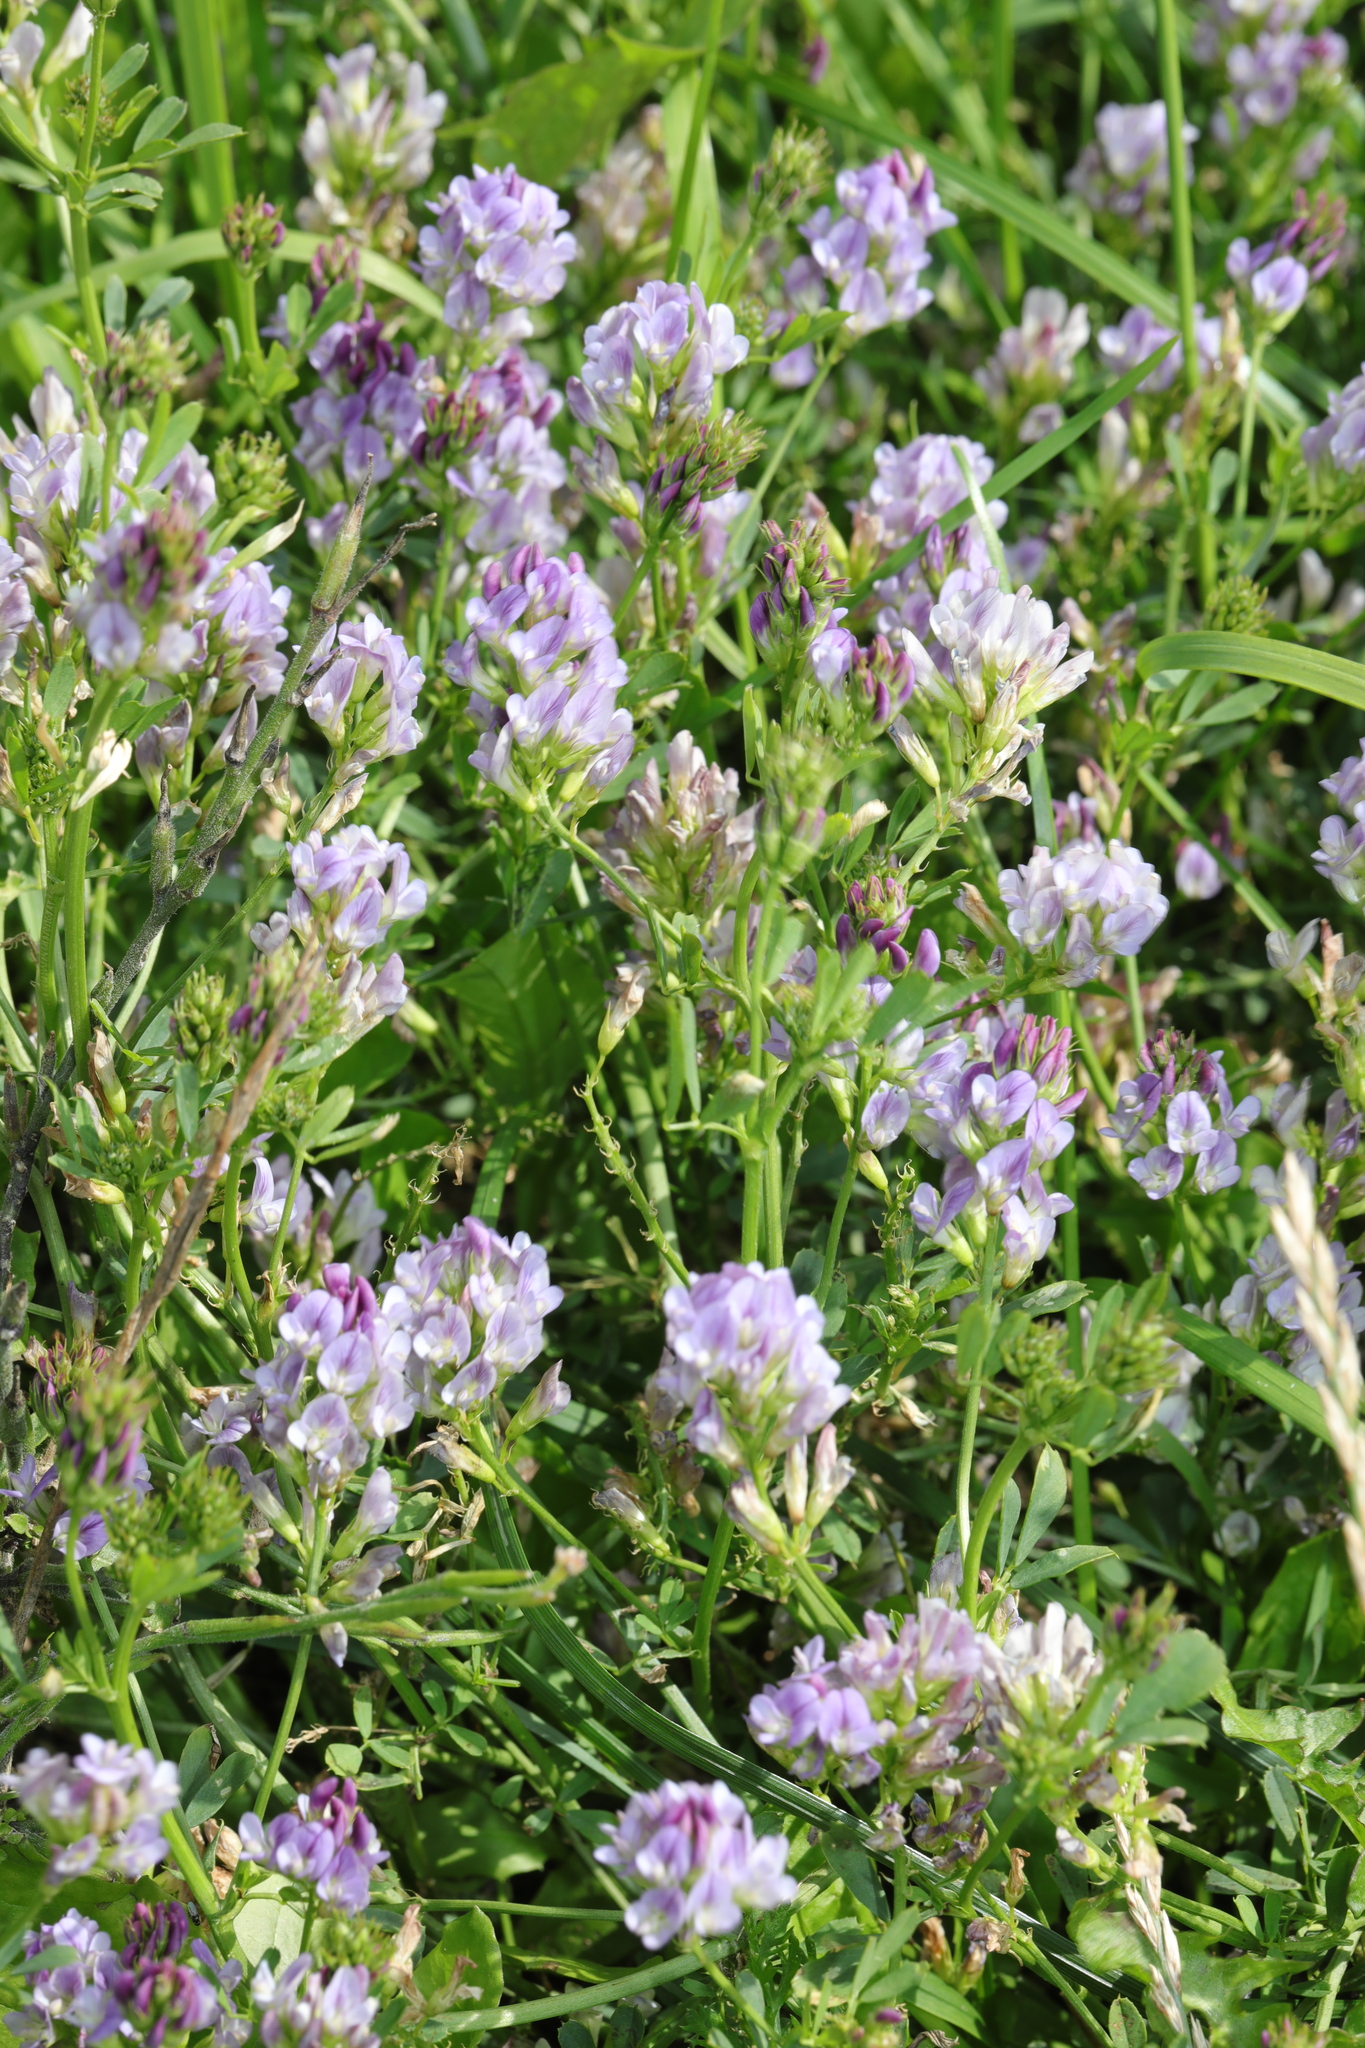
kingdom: Plantae
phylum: Tracheophyta
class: Magnoliopsida
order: Fabales
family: Fabaceae
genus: Medicago
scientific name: Medicago sativa
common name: Alfalfa
